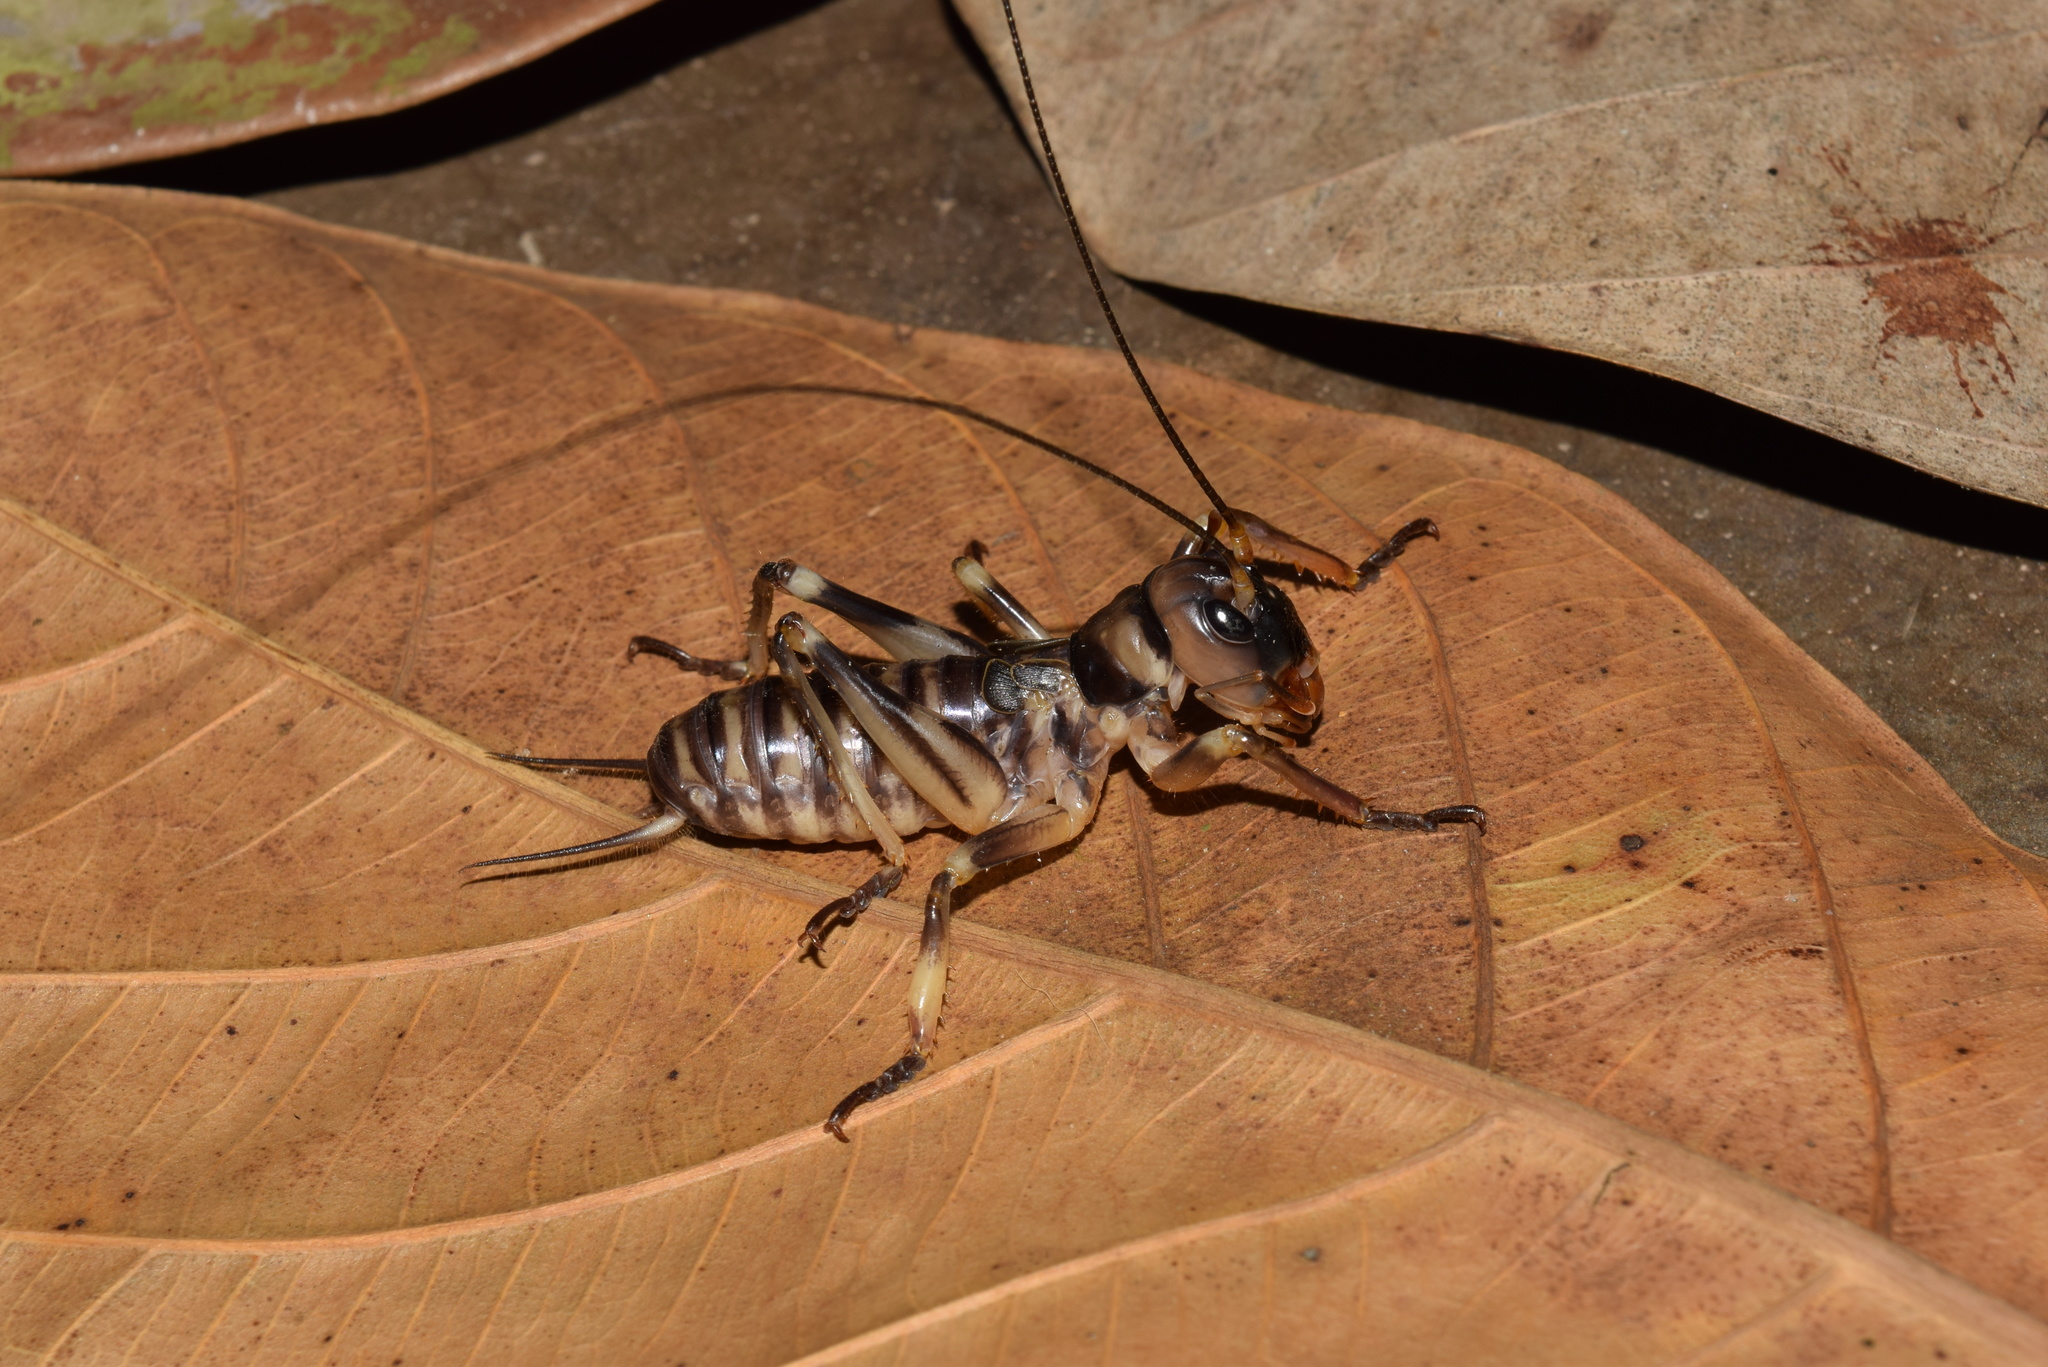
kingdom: Animalia
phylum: Arthropoda
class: Insecta
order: Orthoptera
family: Anostostomatidae
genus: Gryllacropsis
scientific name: Gryllacropsis magniceps
